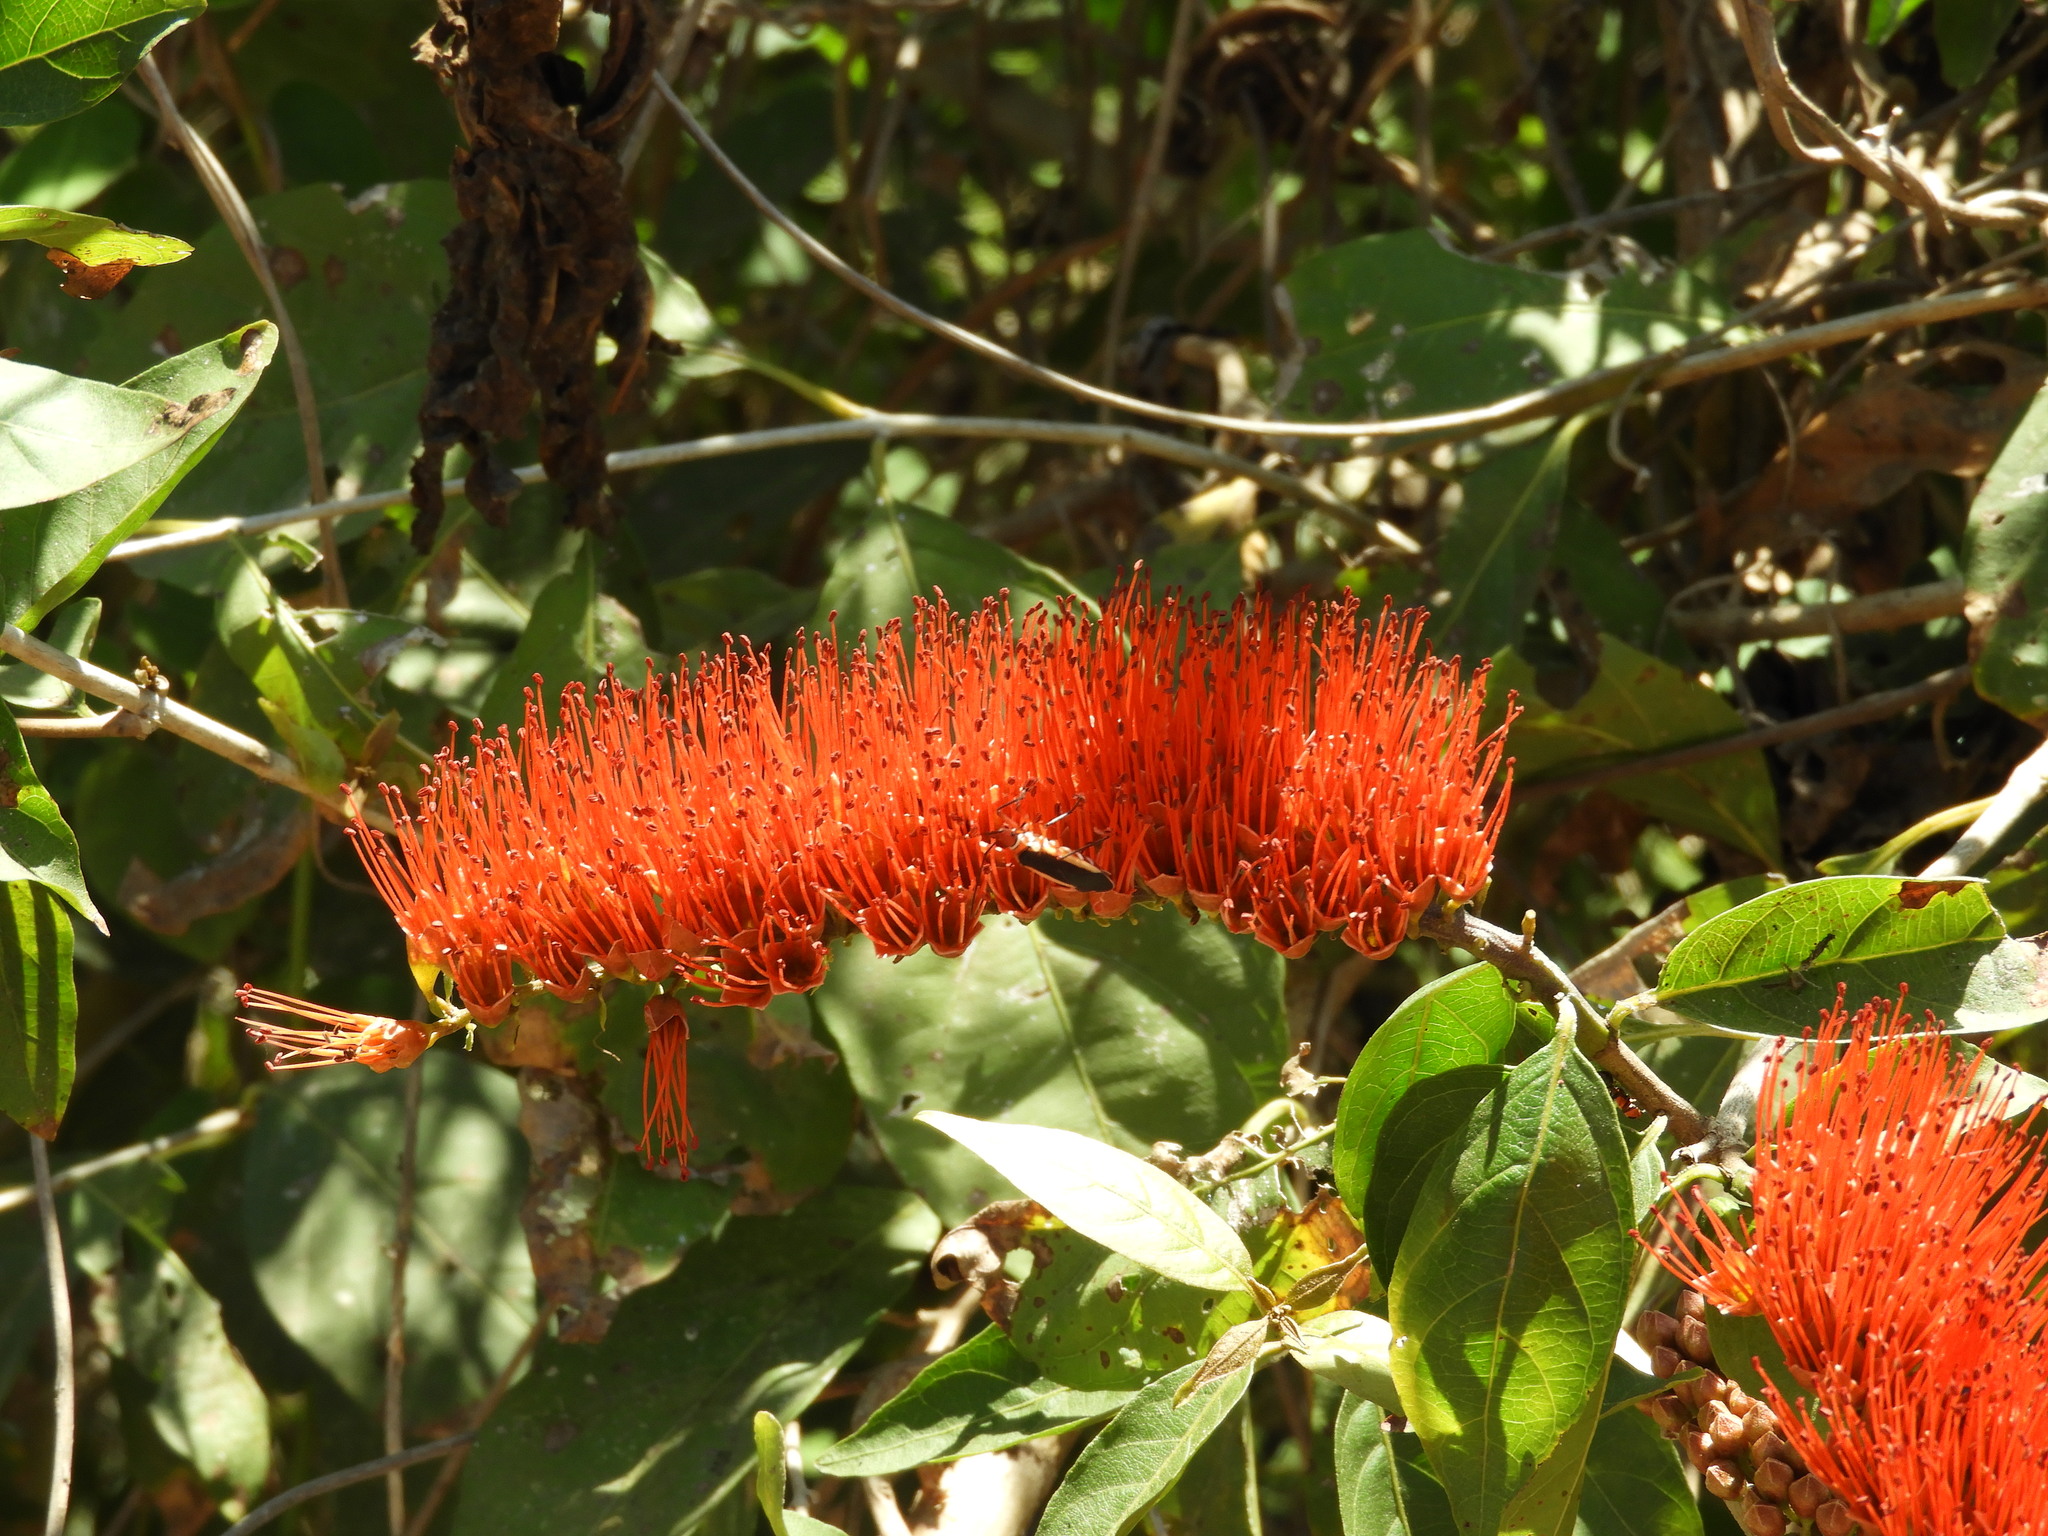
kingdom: Plantae
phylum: Tracheophyta
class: Magnoliopsida
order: Myrtales
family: Combretaceae
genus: Combretum
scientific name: Combretum farinosum
